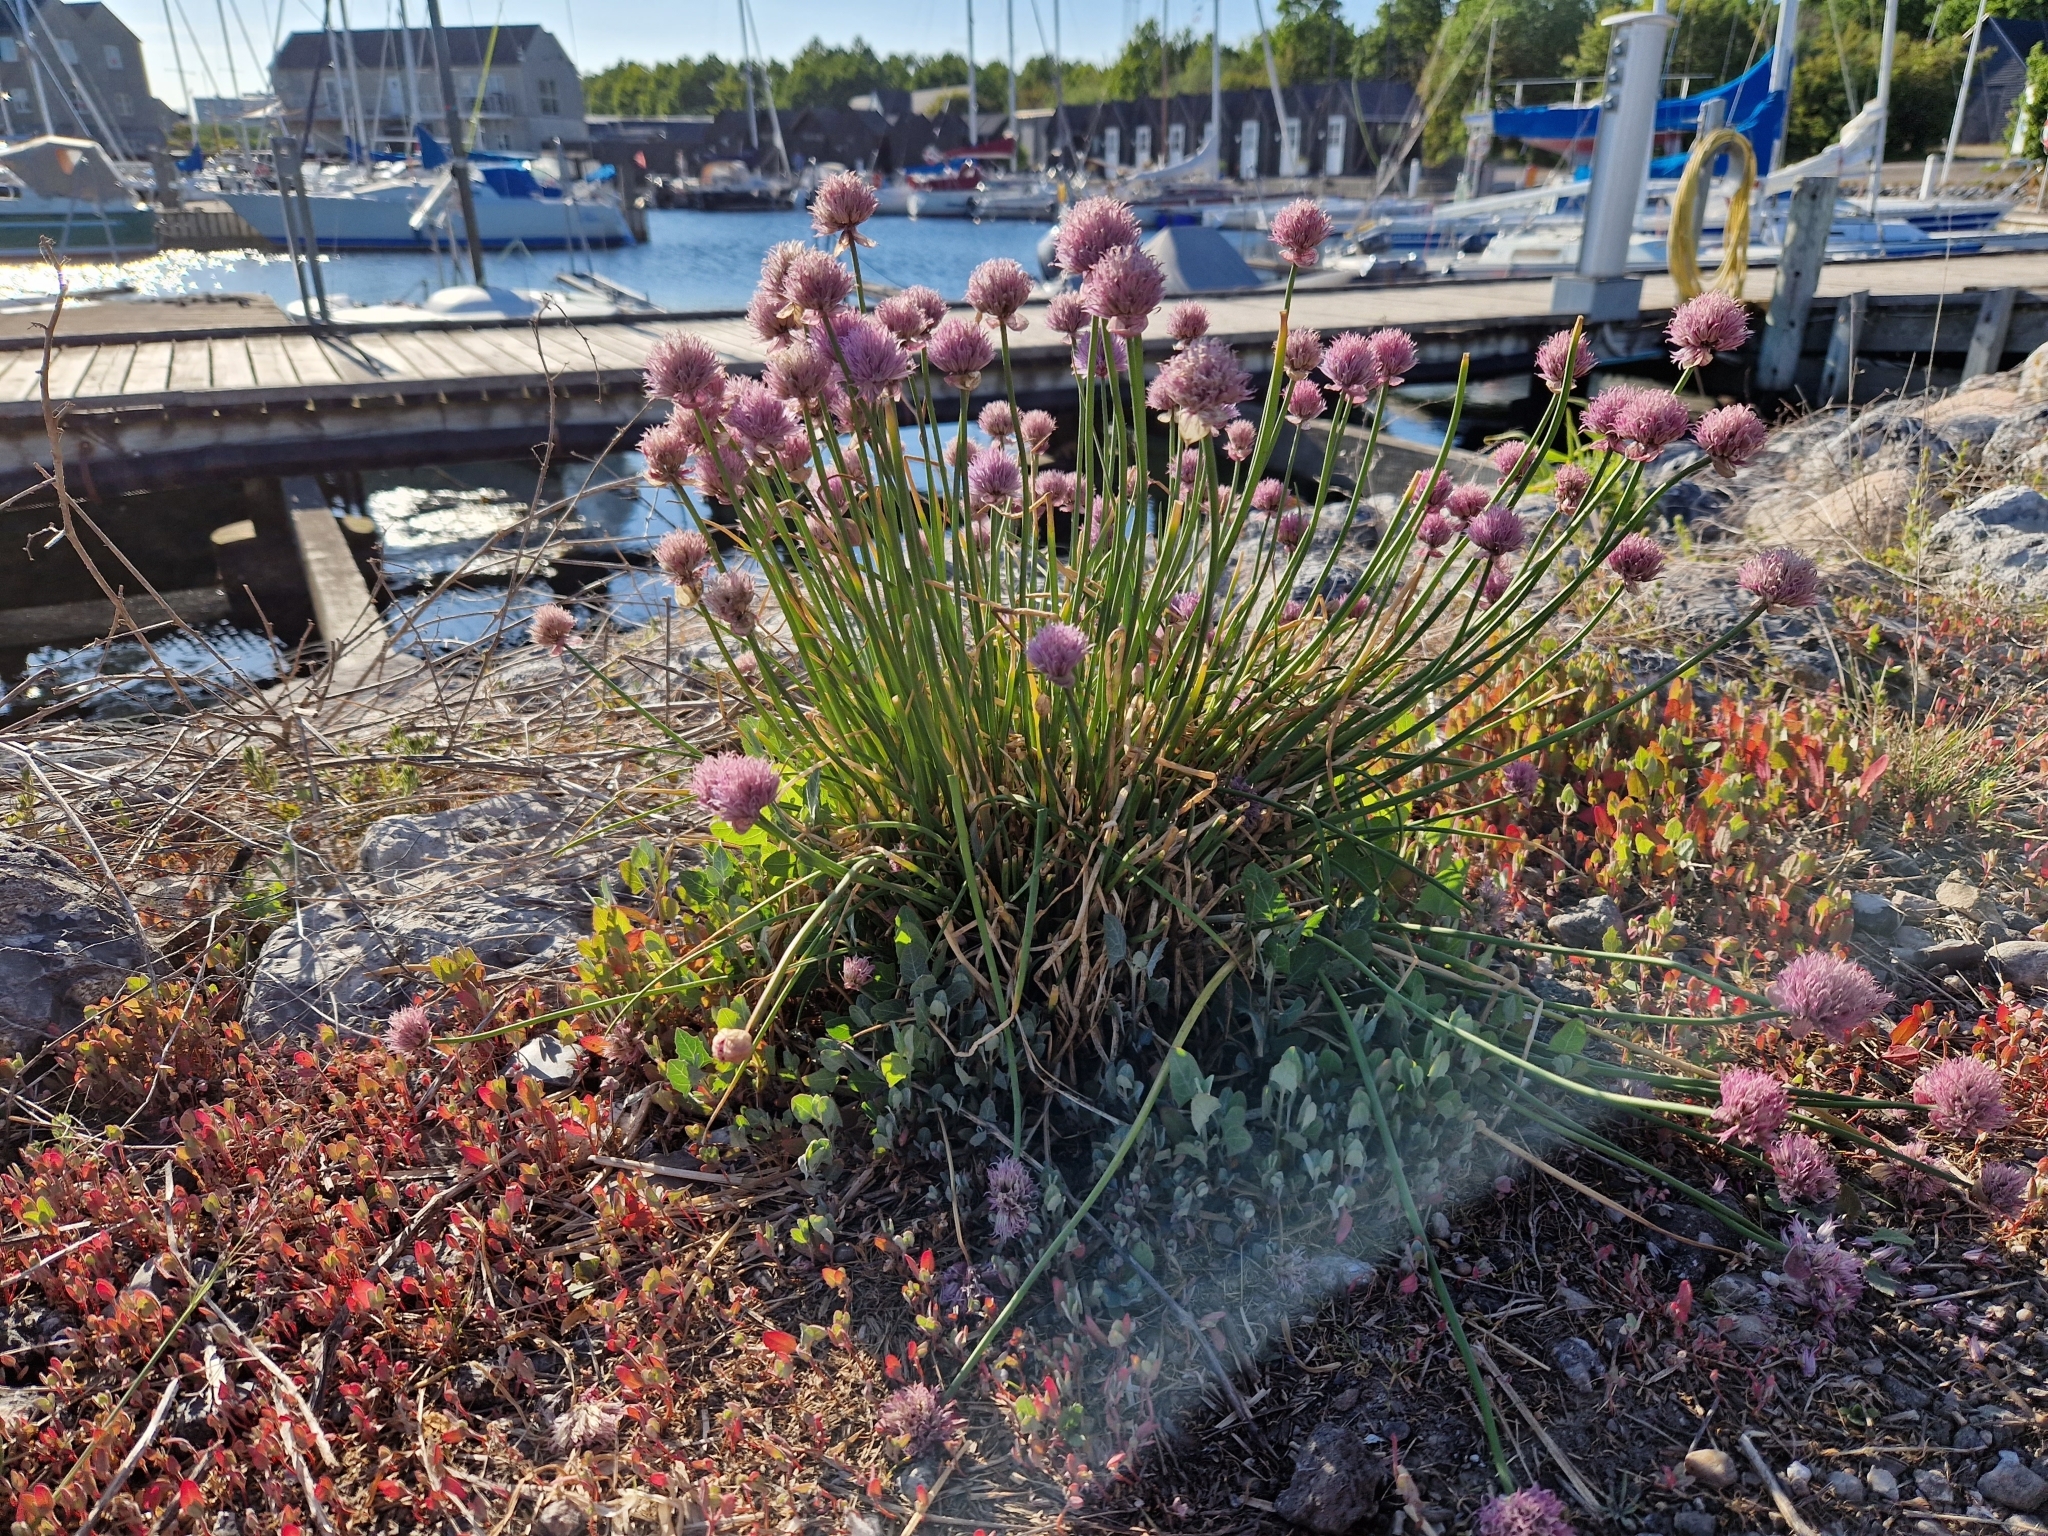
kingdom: Plantae
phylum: Tracheophyta
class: Liliopsida
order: Asparagales
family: Amaryllidaceae
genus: Allium
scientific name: Allium schoenoprasum
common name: Chives
